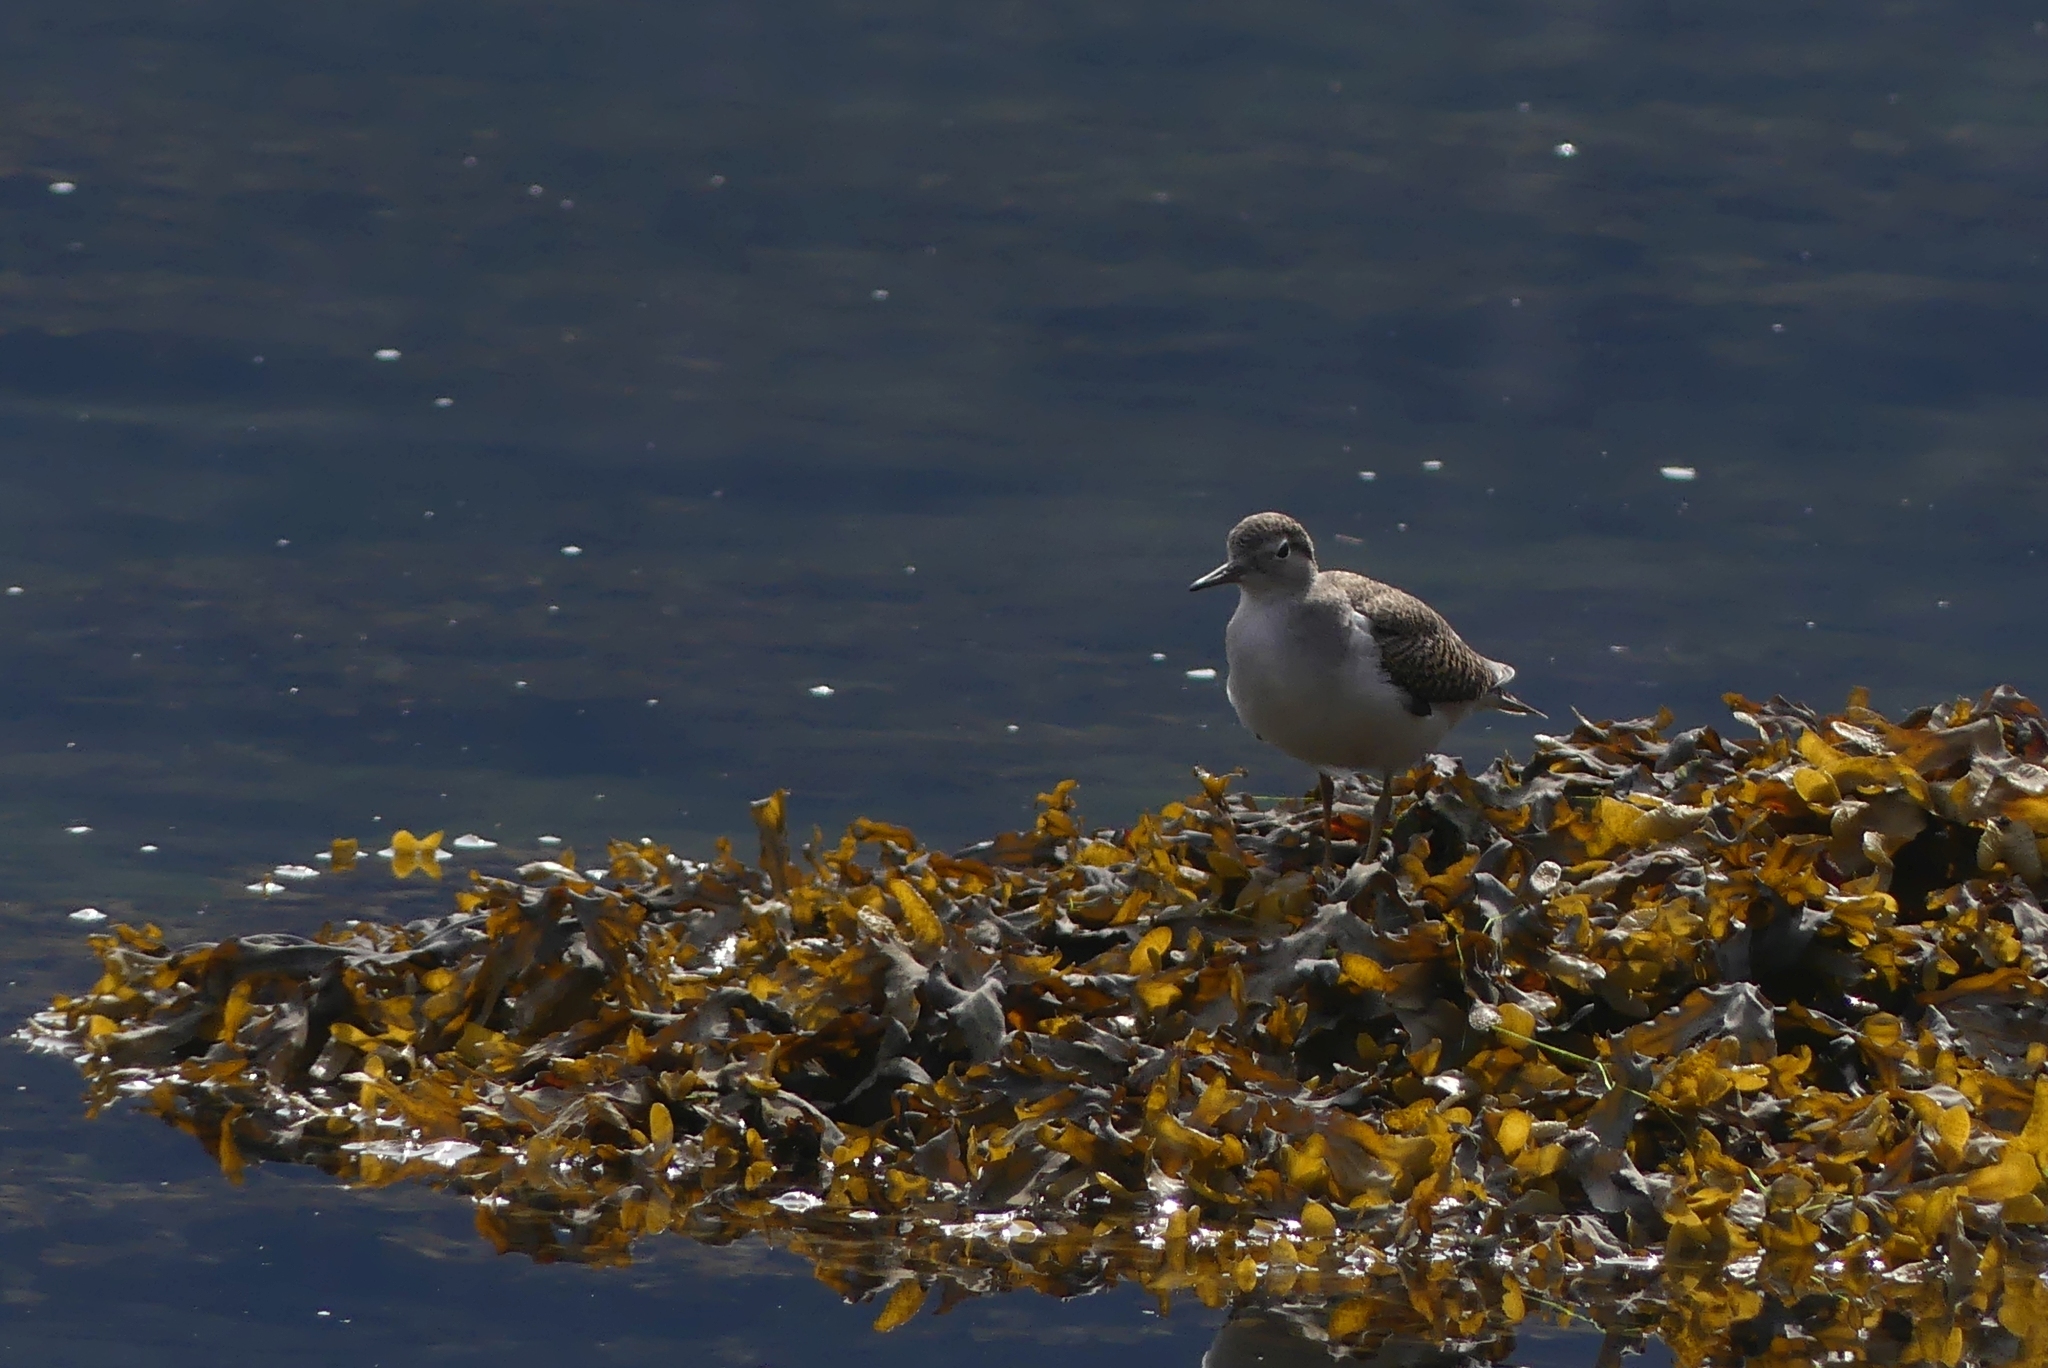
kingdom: Animalia
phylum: Chordata
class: Aves
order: Charadriiformes
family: Scolopacidae
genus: Actitis
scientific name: Actitis macularius
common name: Spotted sandpiper
